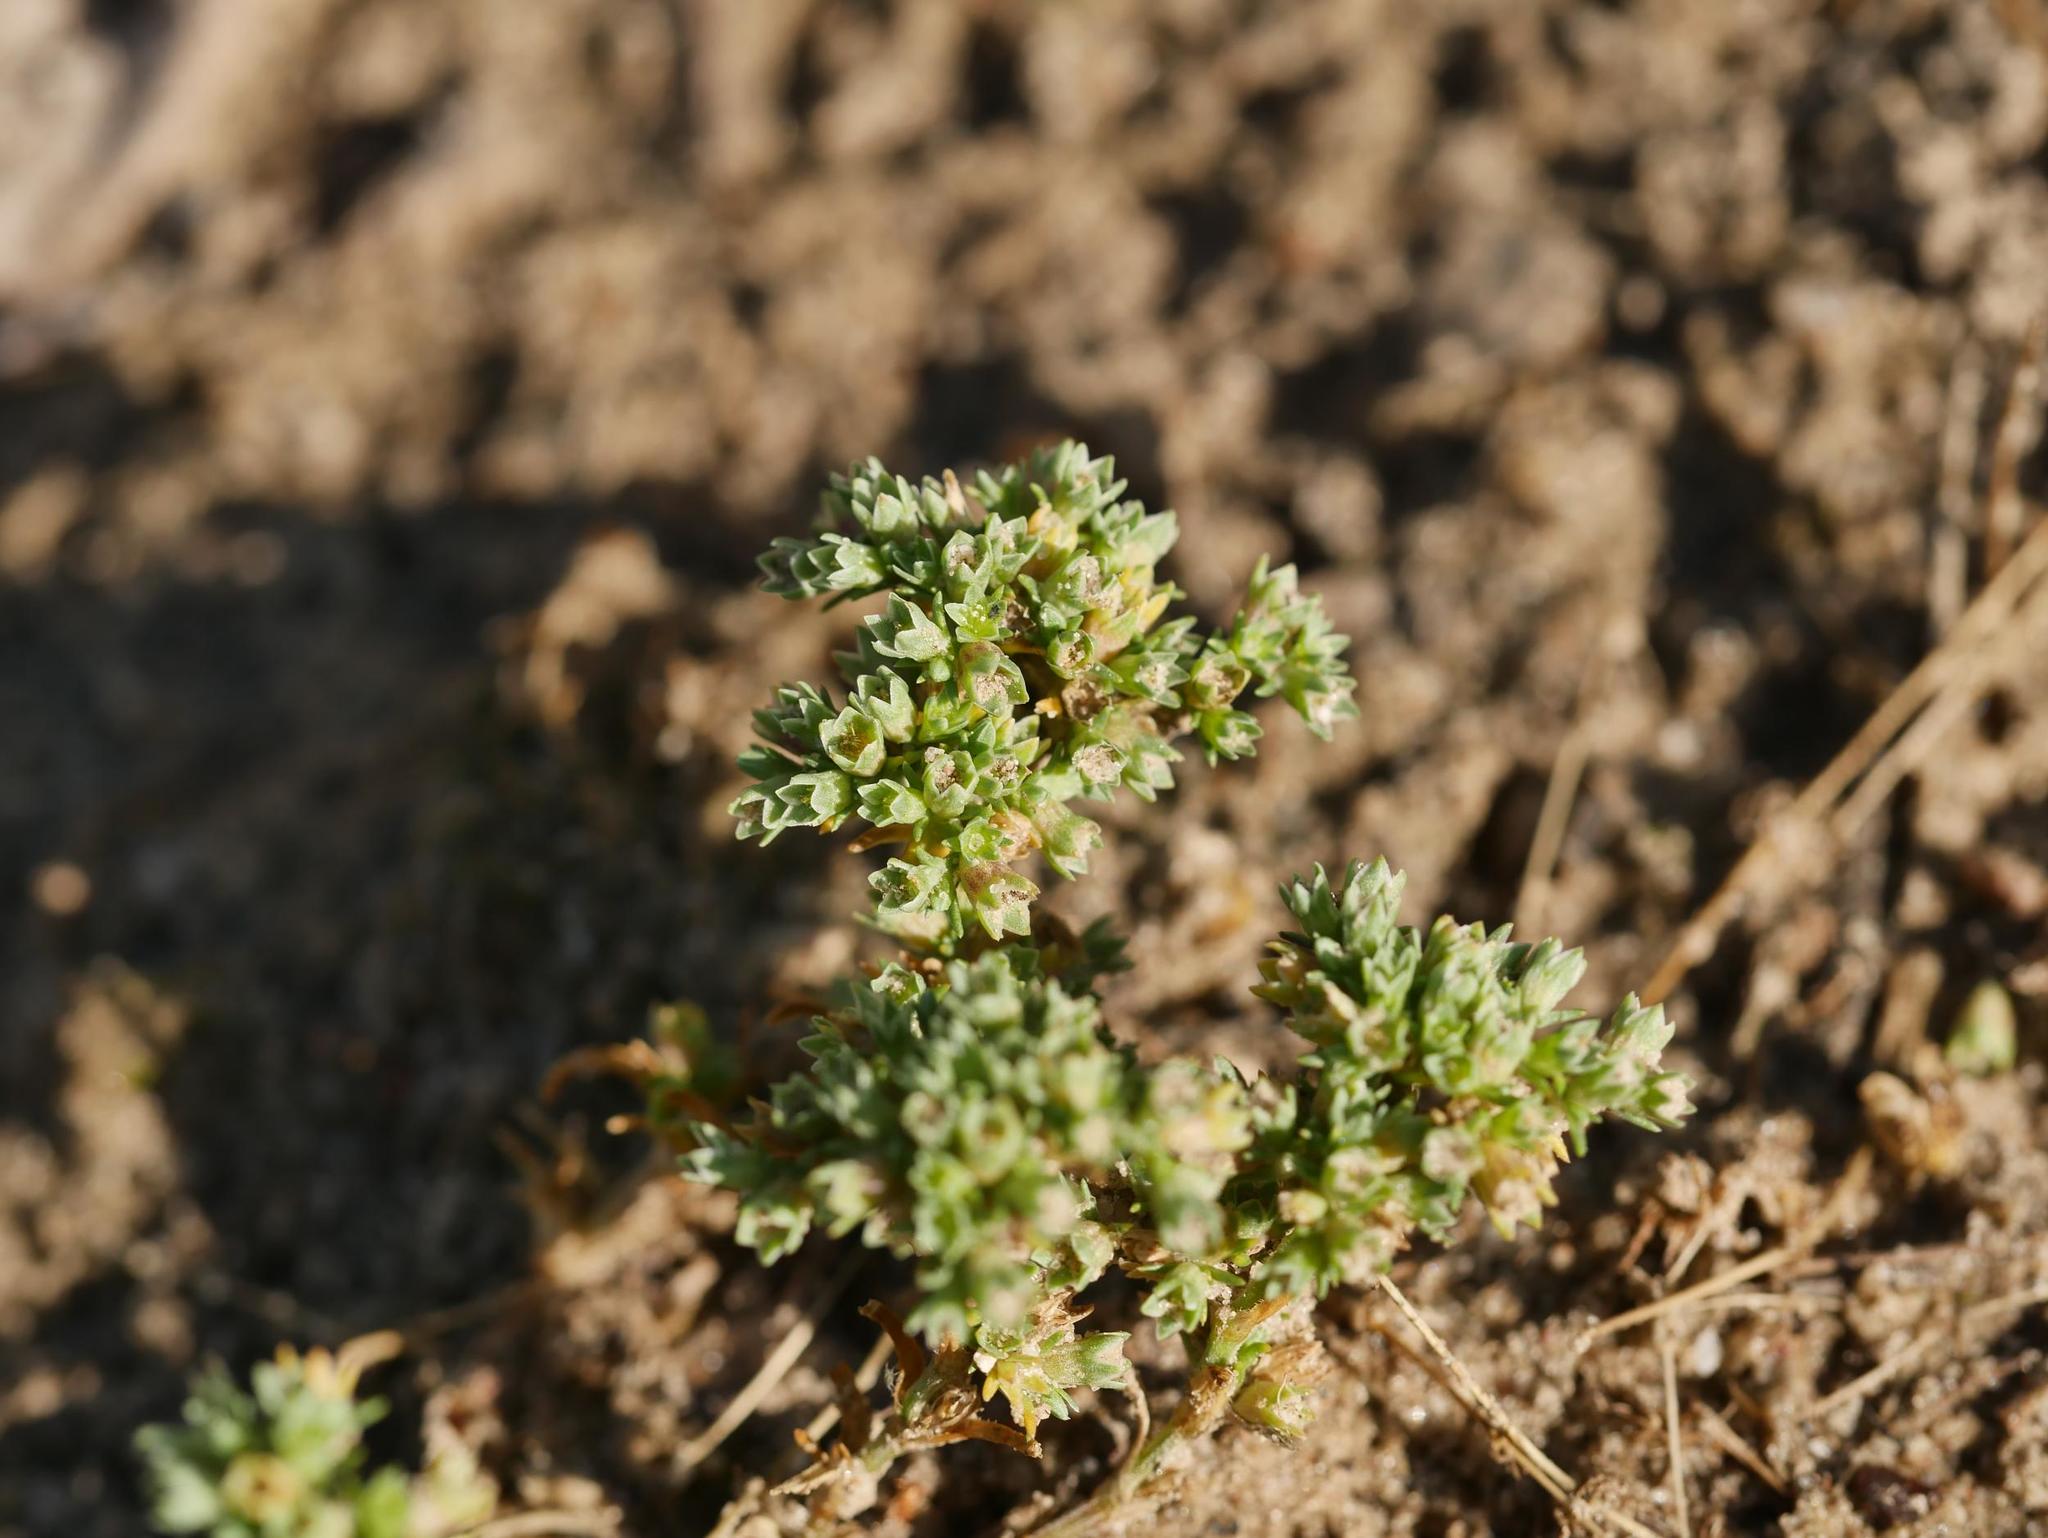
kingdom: Plantae
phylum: Tracheophyta
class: Magnoliopsida
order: Caryophyllales
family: Caryophyllaceae
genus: Scleranthus
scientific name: Scleranthus annuus
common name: Annual knawel
